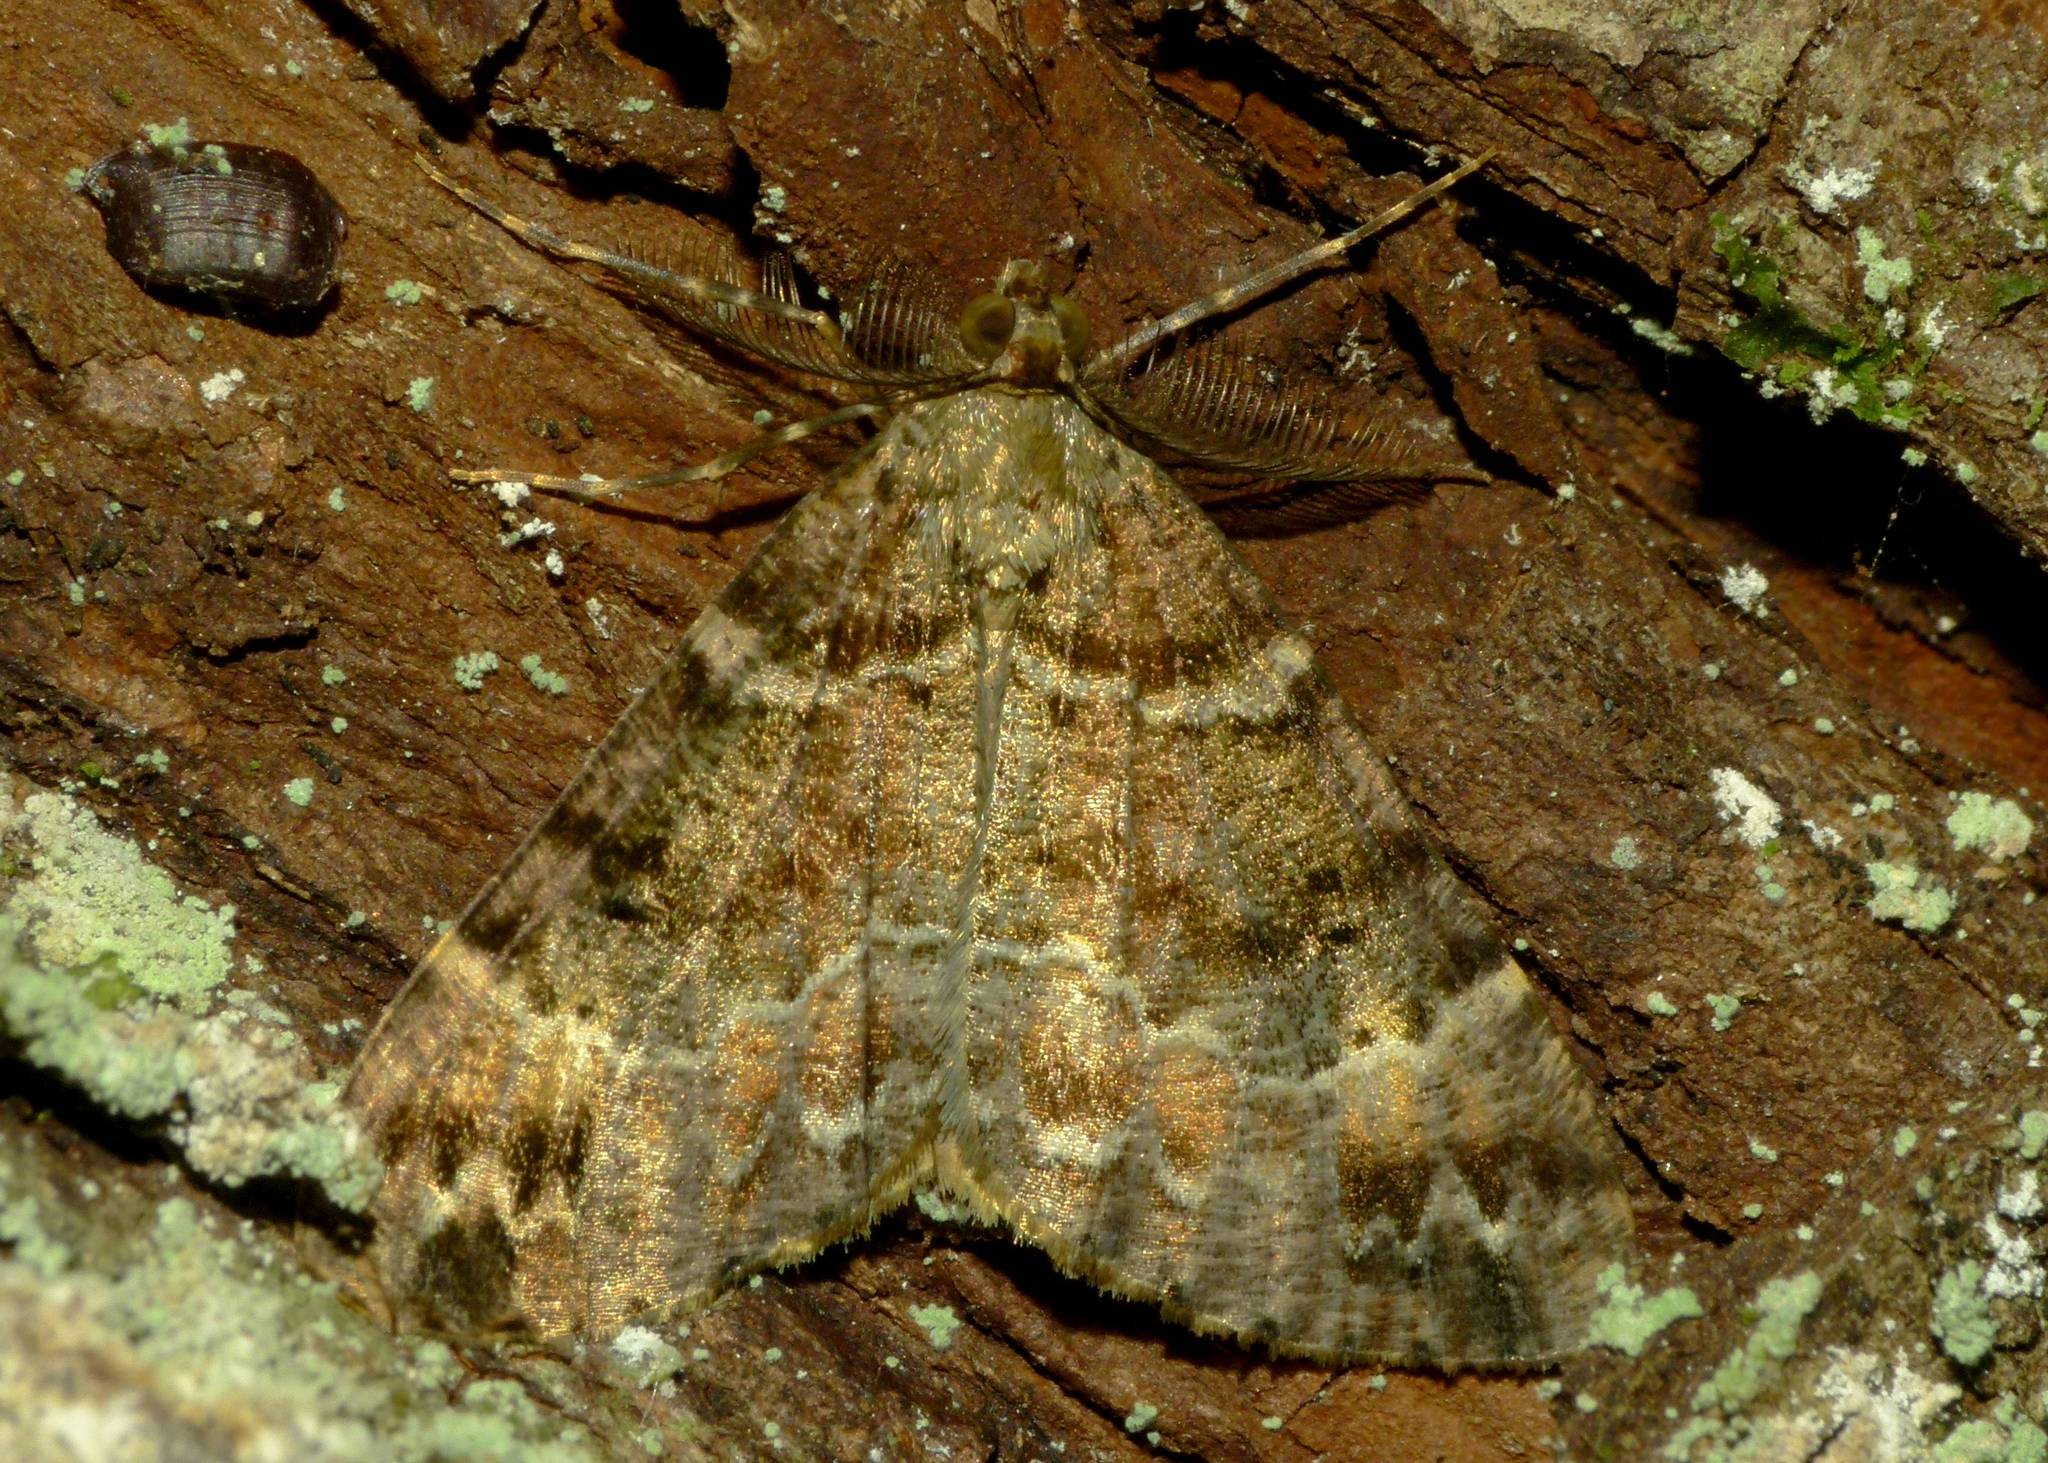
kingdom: Animalia
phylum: Arthropoda
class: Insecta
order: Lepidoptera
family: Geometridae
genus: Pseudocoremia
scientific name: Pseudocoremia productata
